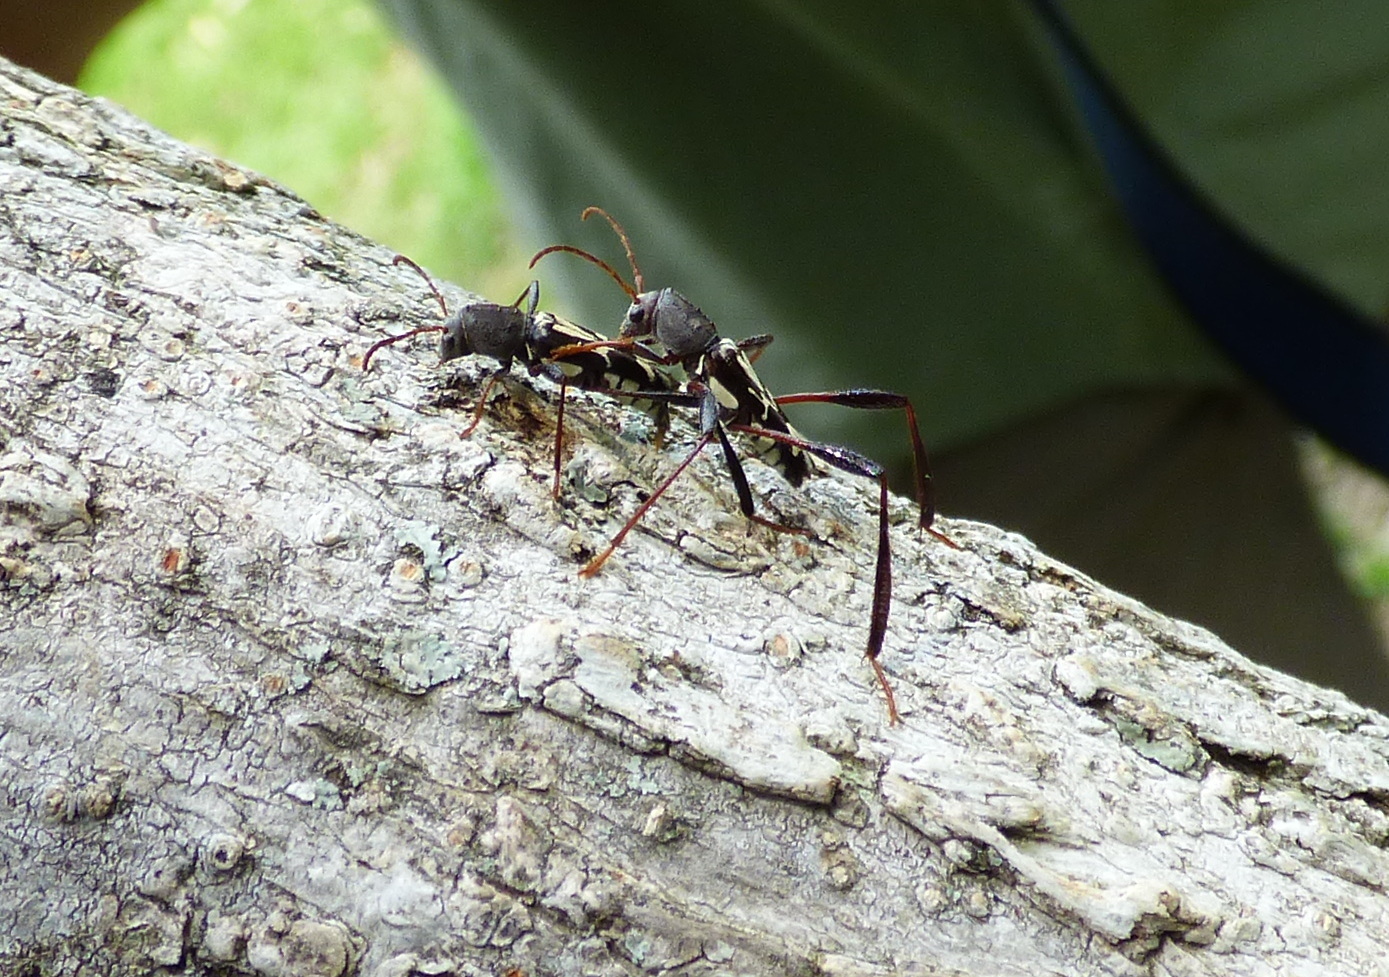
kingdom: Animalia
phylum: Arthropoda
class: Insecta
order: Coleoptera
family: Cerambycidae
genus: Neoclytus
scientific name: Neoclytus ypsilon
